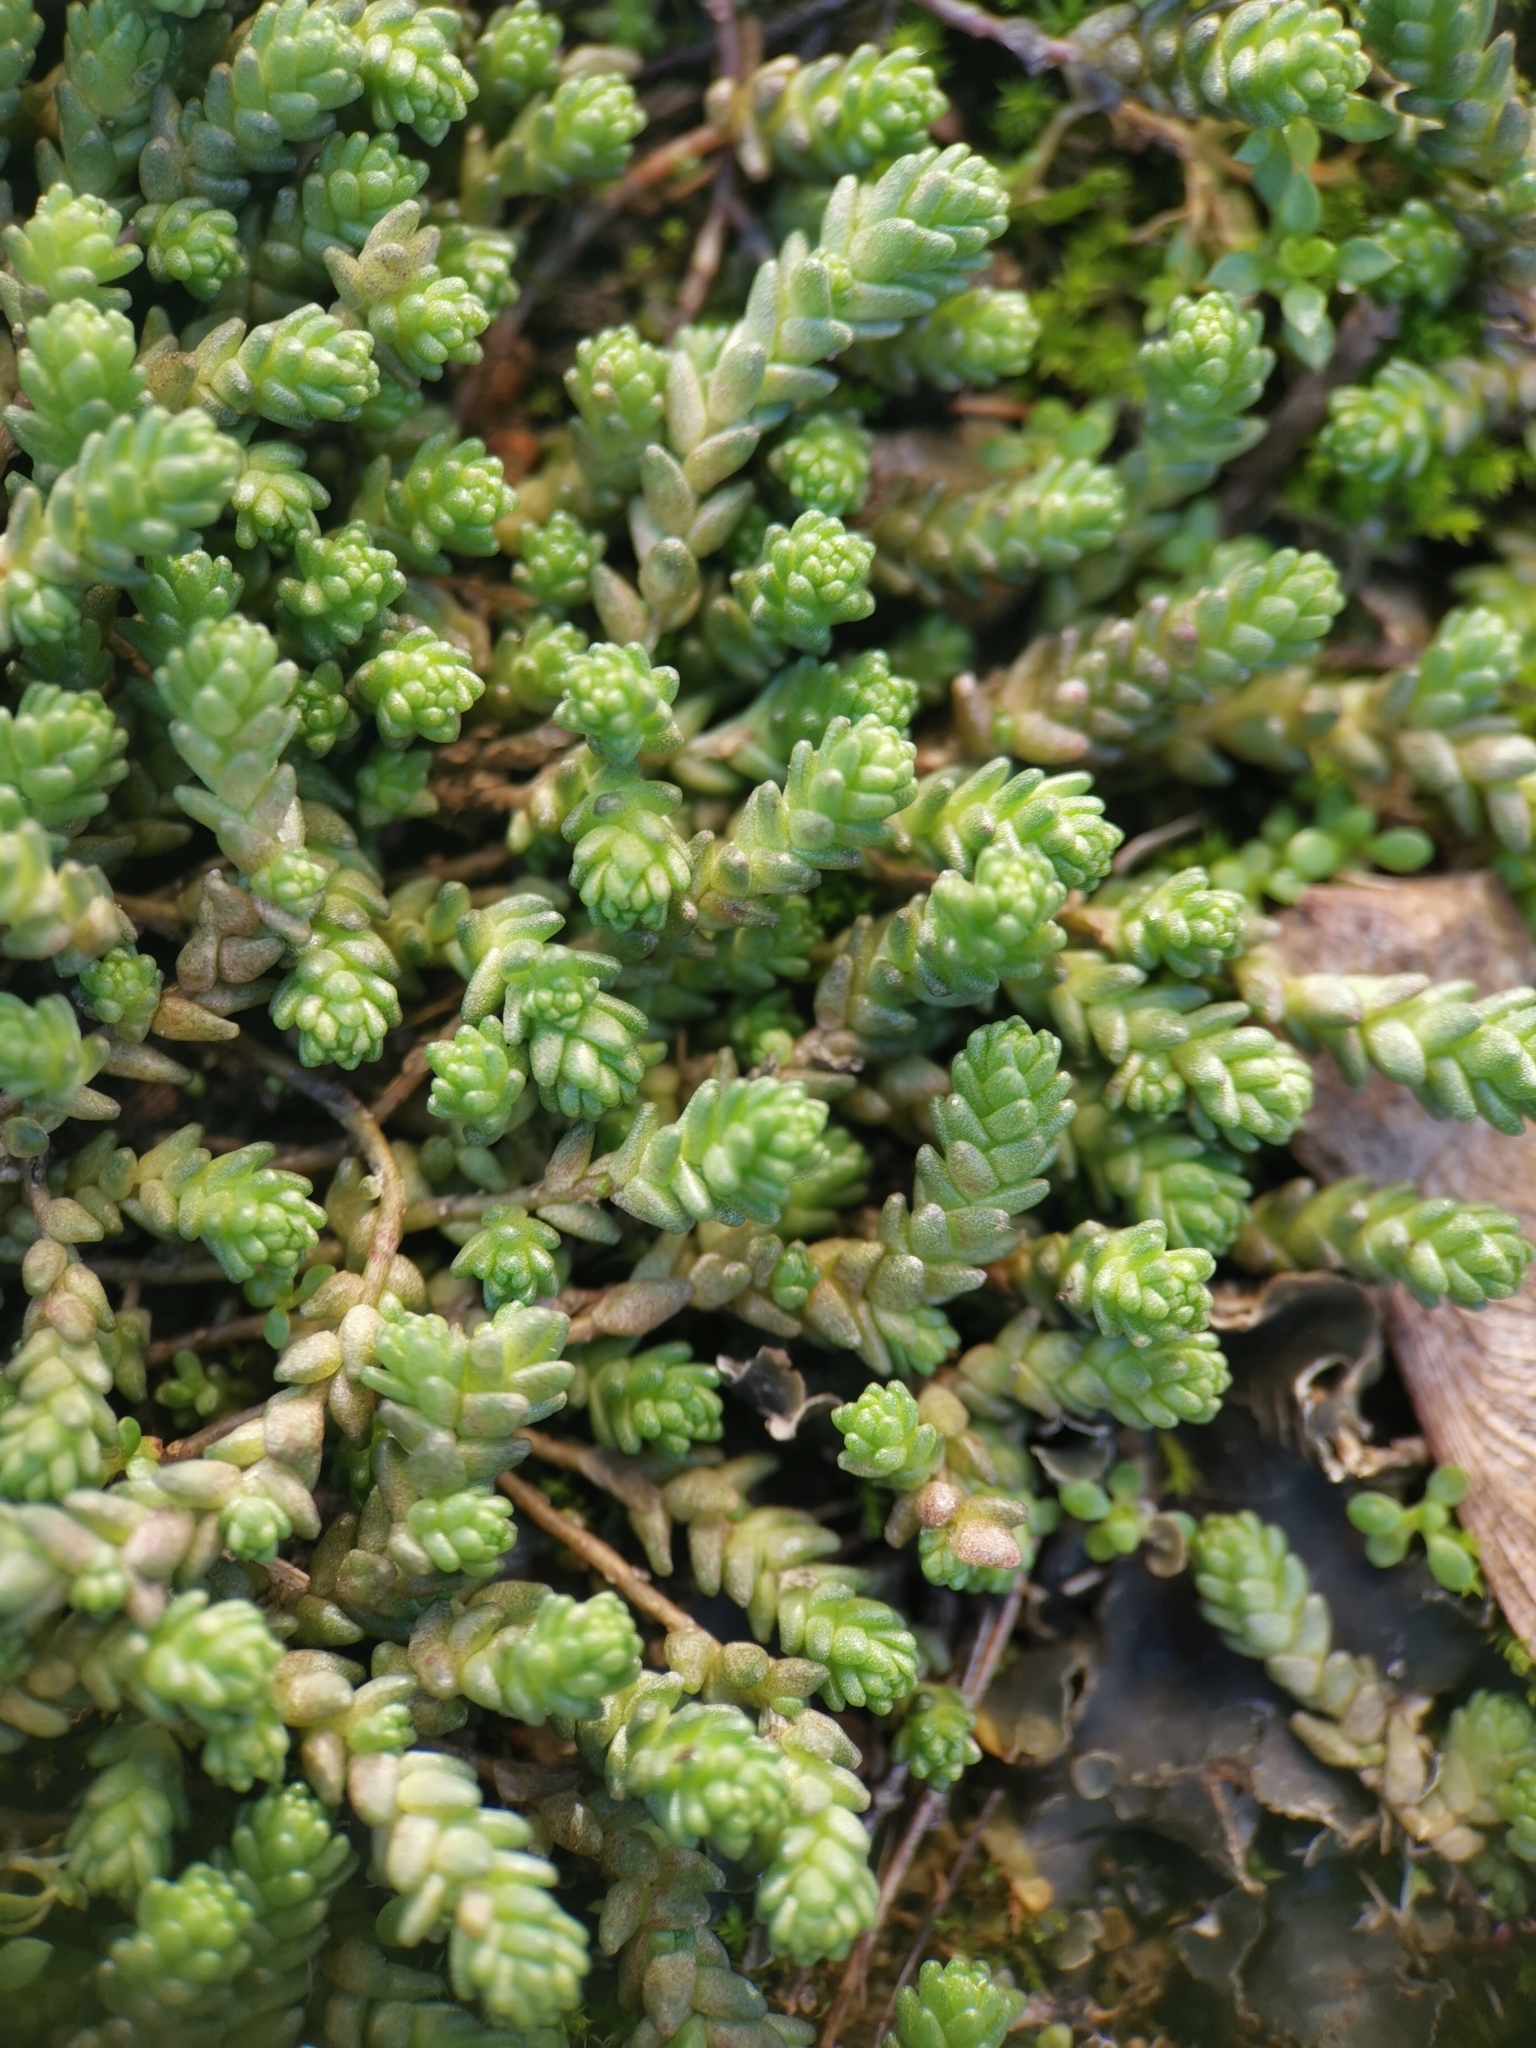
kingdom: Plantae
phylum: Tracheophyta
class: Magnoliopsida
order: Saxifragales
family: Crassulaceae
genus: Sedum
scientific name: Sedum acre
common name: Biting stonecrop
